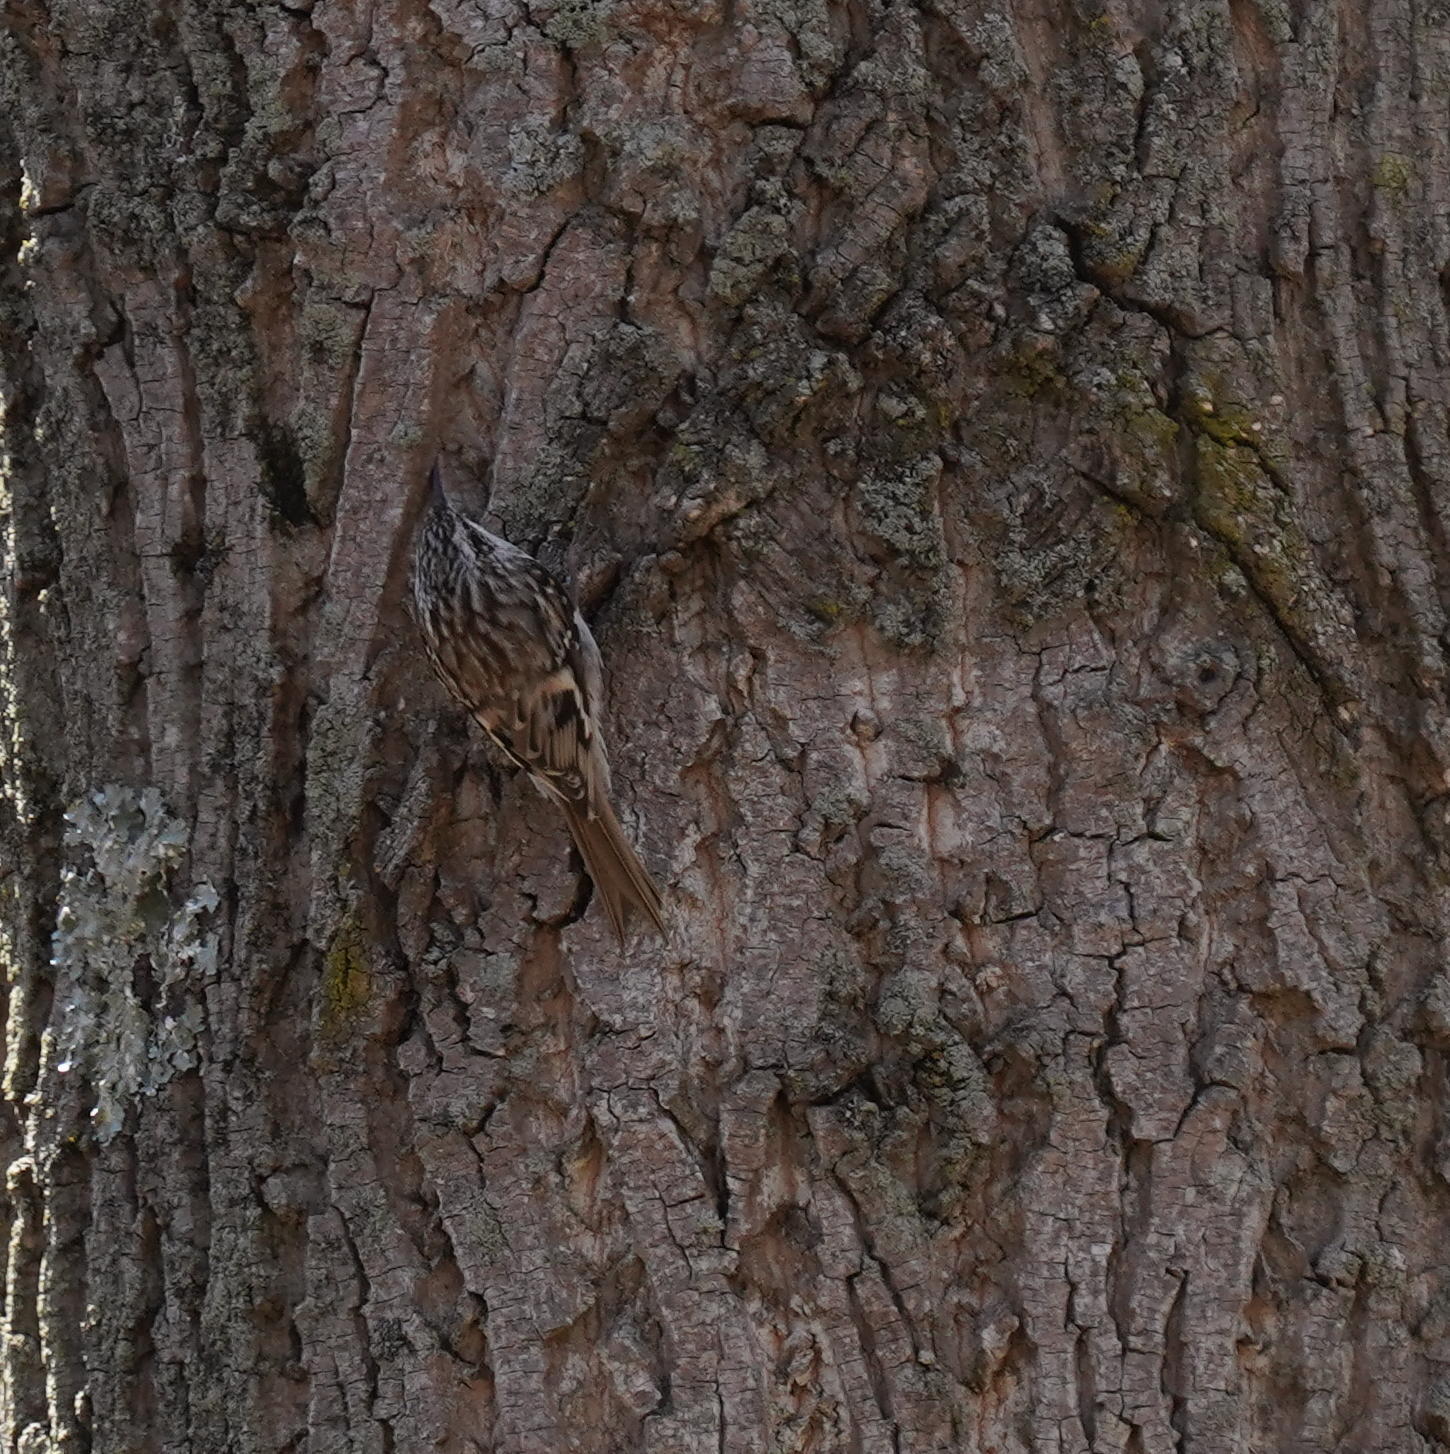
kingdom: Animalia
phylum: Chordata
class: Aves
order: Passeriformes
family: Certhiidae
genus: Certhia
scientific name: Certhia americana
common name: Brown creeper
